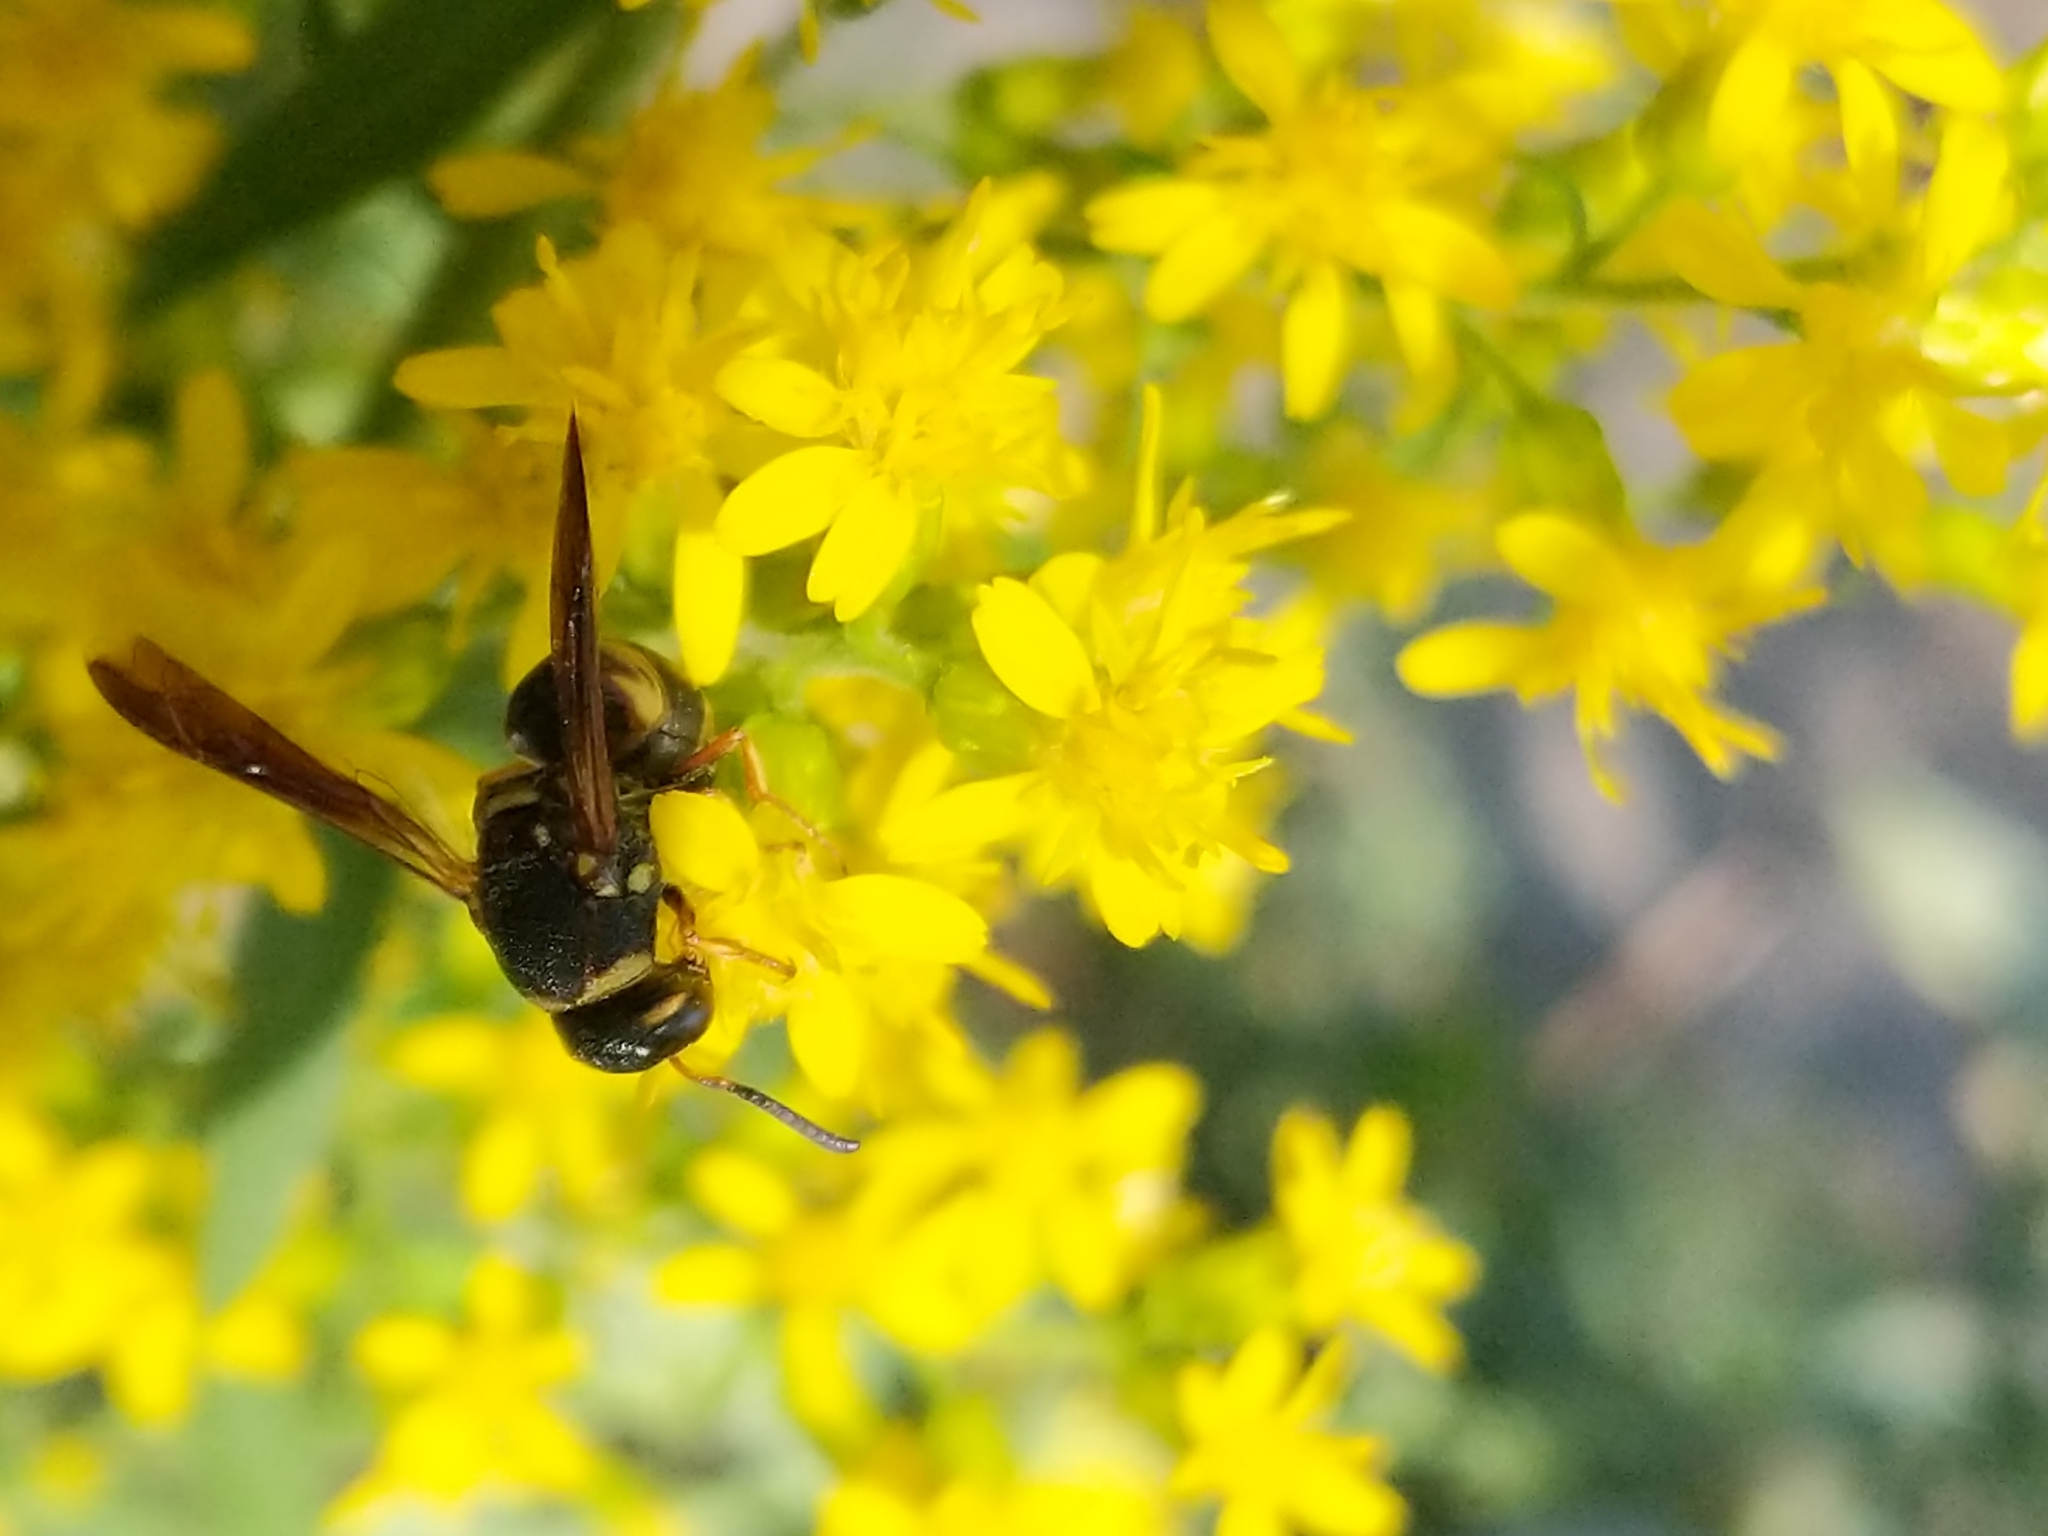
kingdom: Animalia
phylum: Arthropoda
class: Insecta
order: Hymenoptera
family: Eumenidae
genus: Euodynerus
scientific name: Euodynerus
